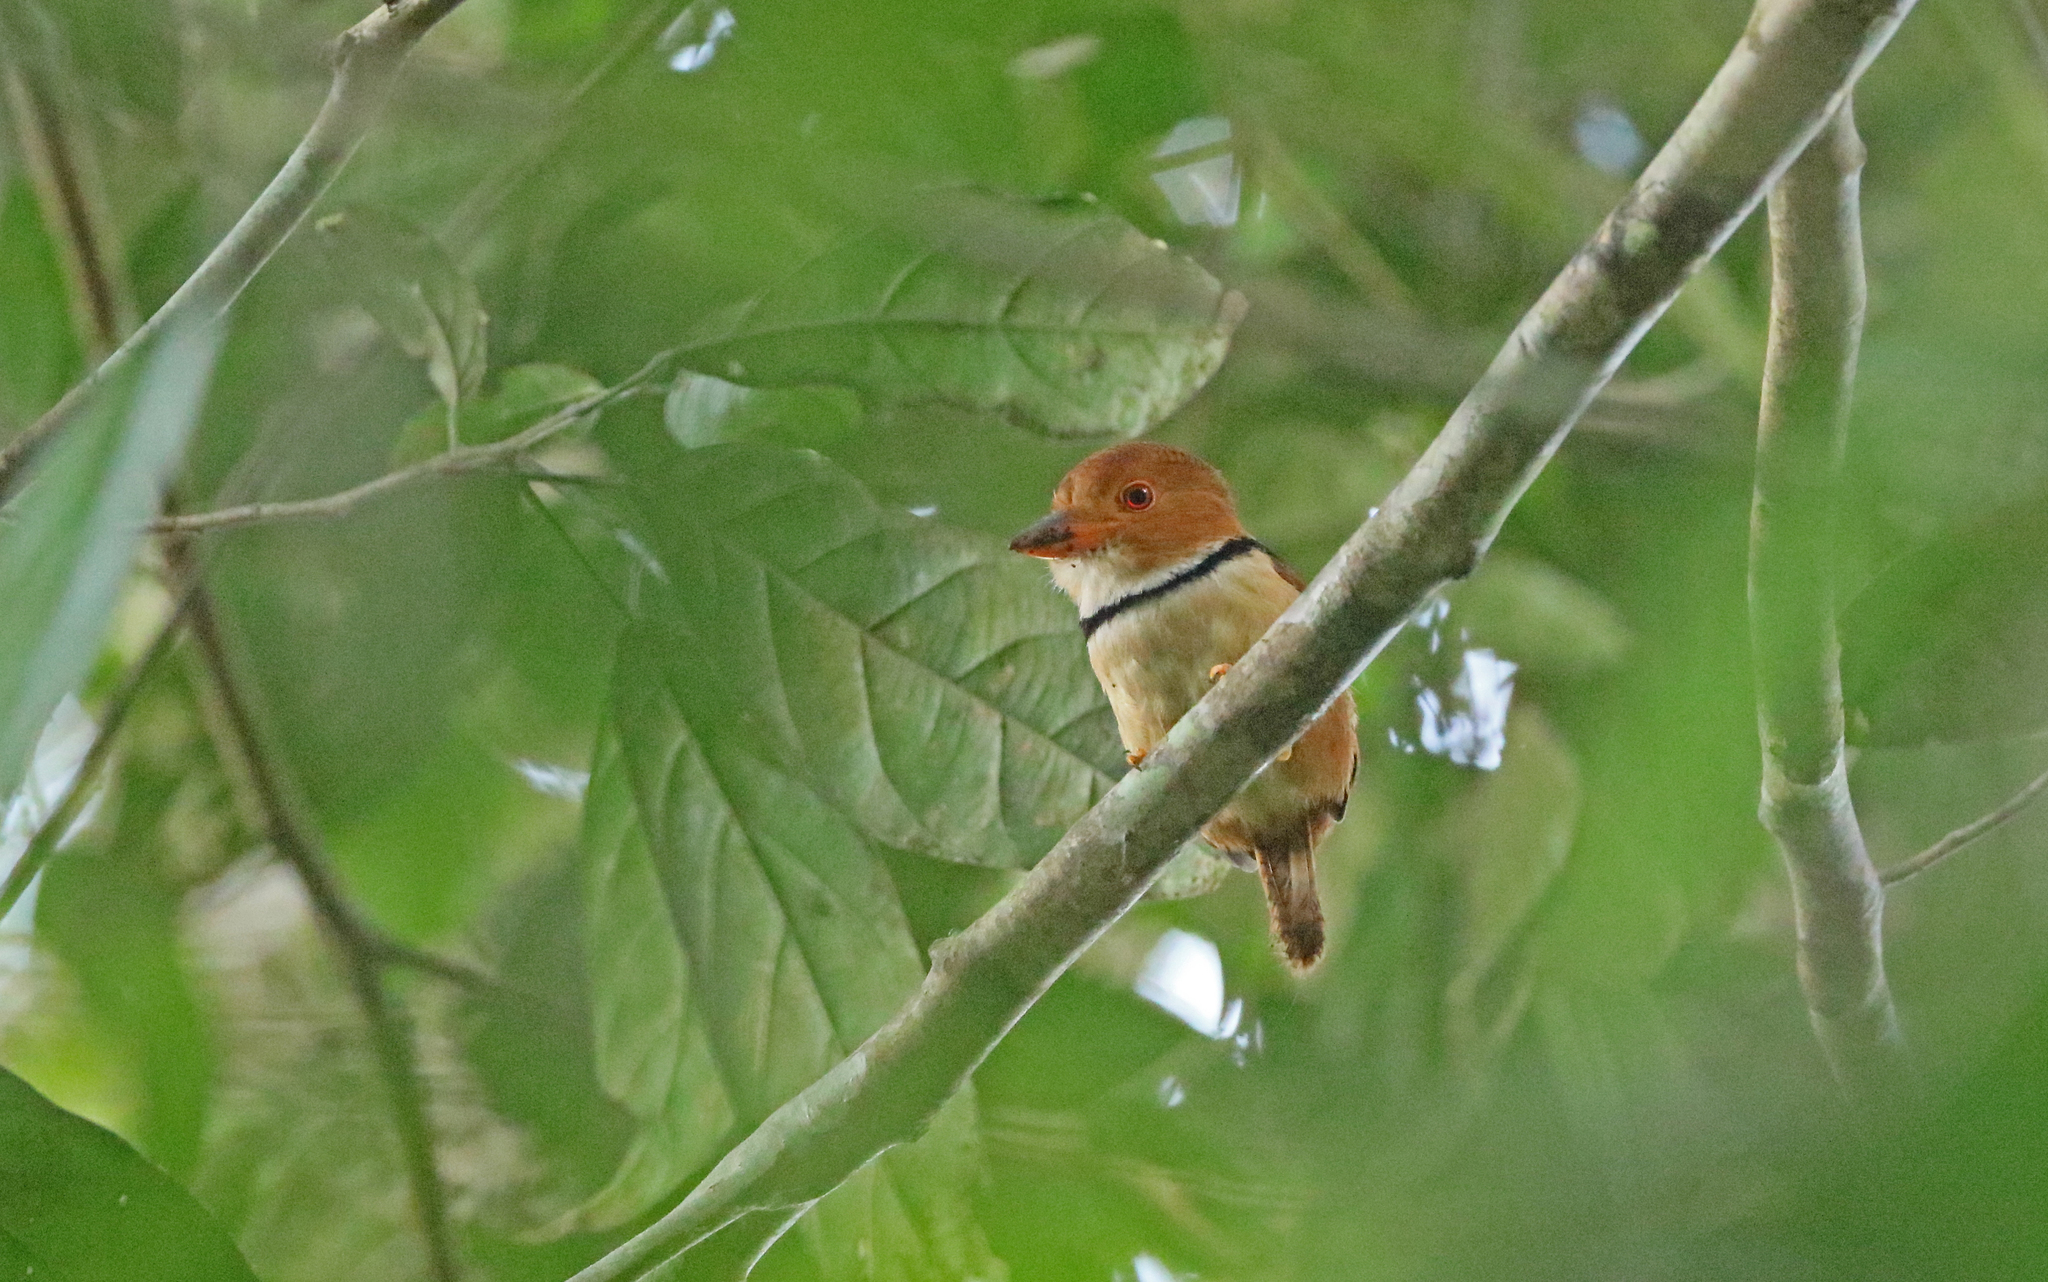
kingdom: Animalia
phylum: Chordata
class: Aves
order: Piciformes
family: Bucconidae
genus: Bucco
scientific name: Bucco capensis
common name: Collared puffbird
